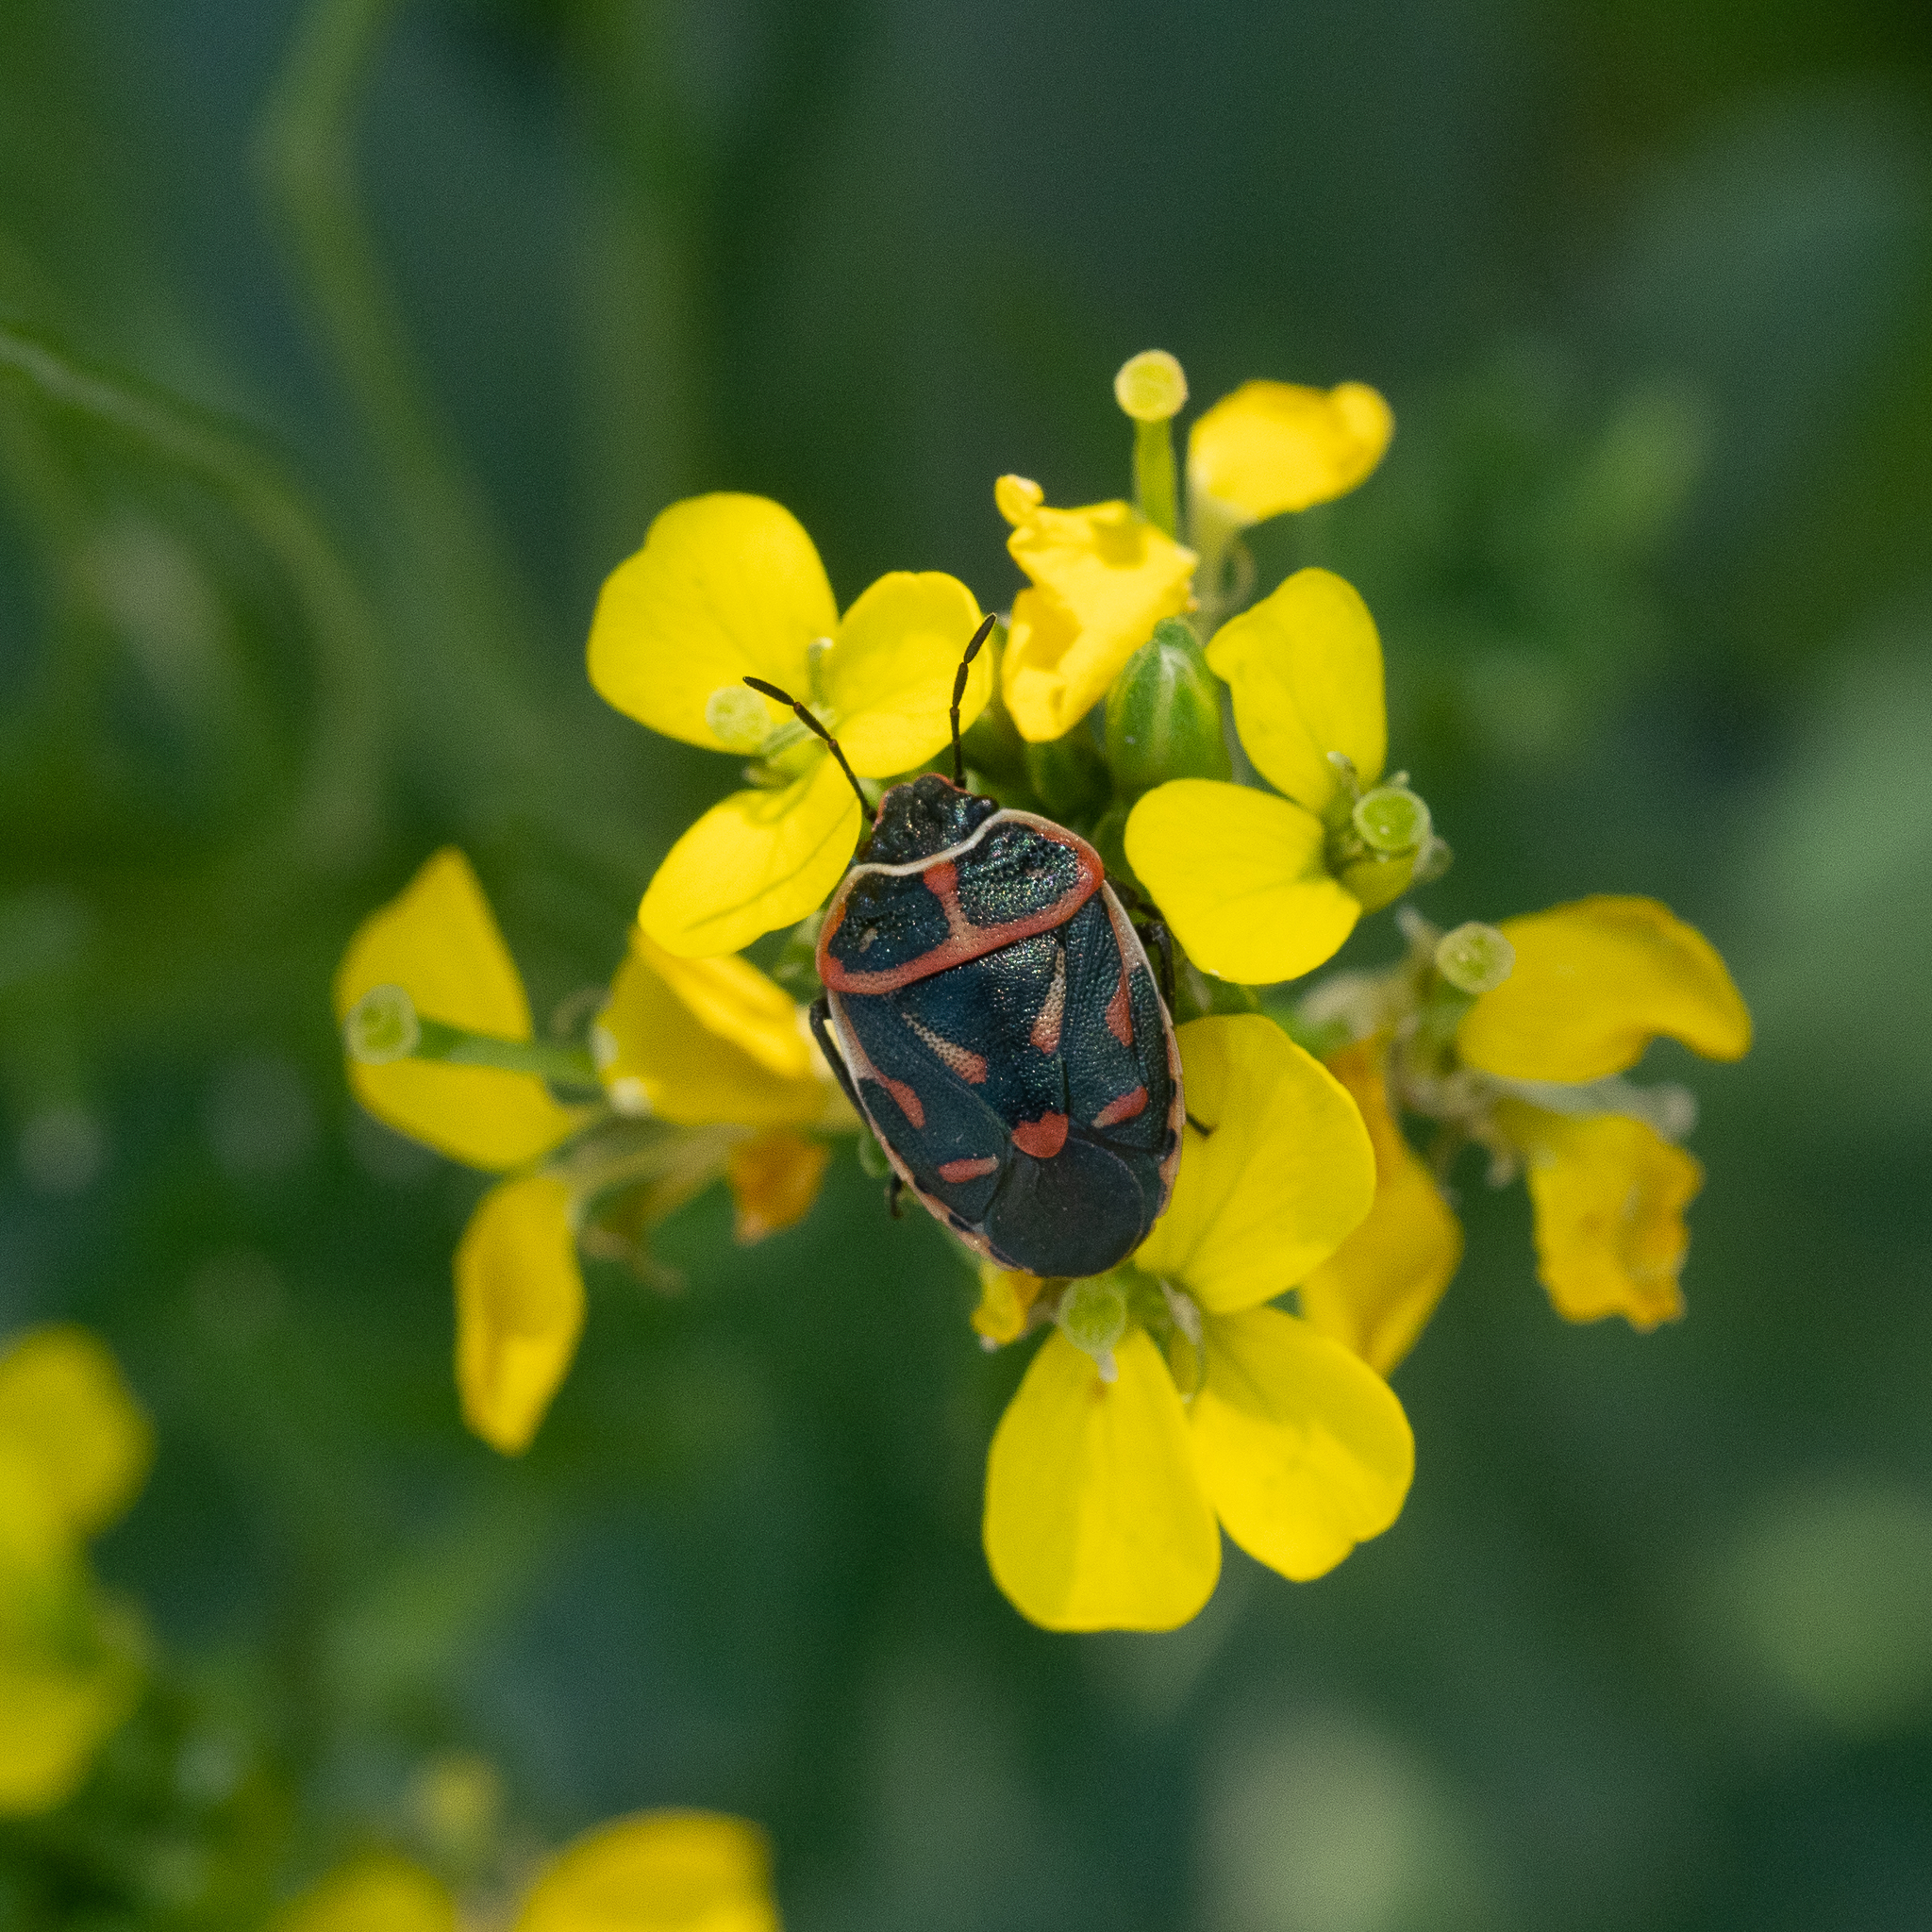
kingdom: Animalia
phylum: Arthropoda
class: Insecta
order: Hemiptera
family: Pentatomidae
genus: Eurydema
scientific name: Eurydema fieberi
